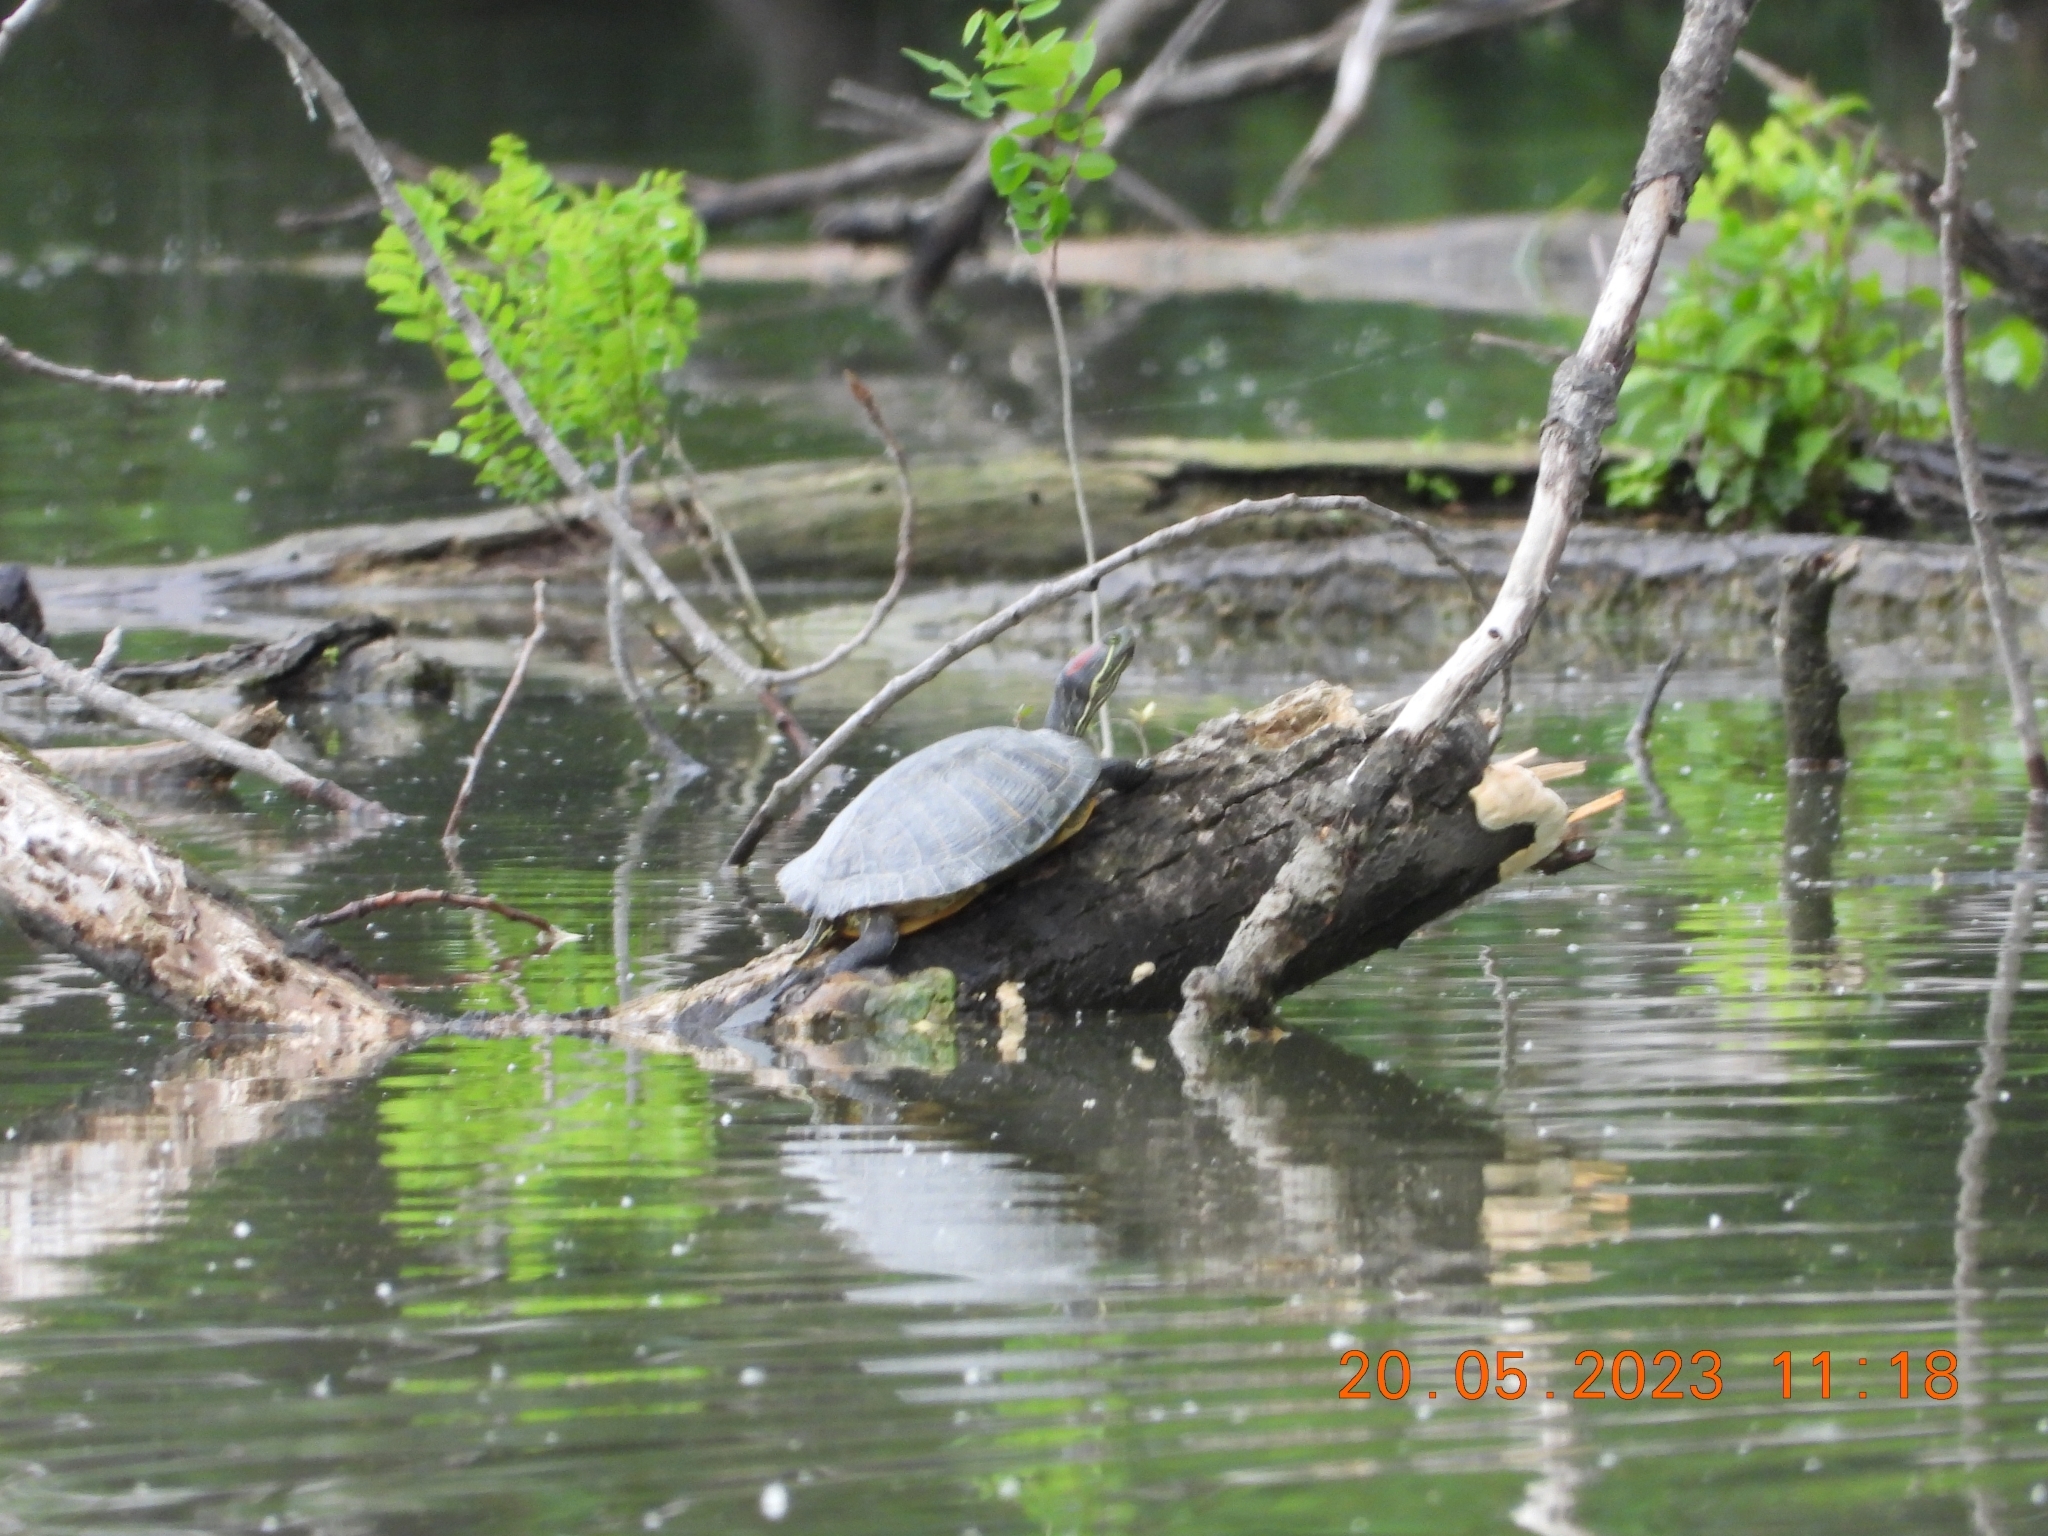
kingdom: Animalia
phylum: Chordata
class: Testudines
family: Emydidae
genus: Trachemys
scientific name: Trachemys scripta
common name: Slider
